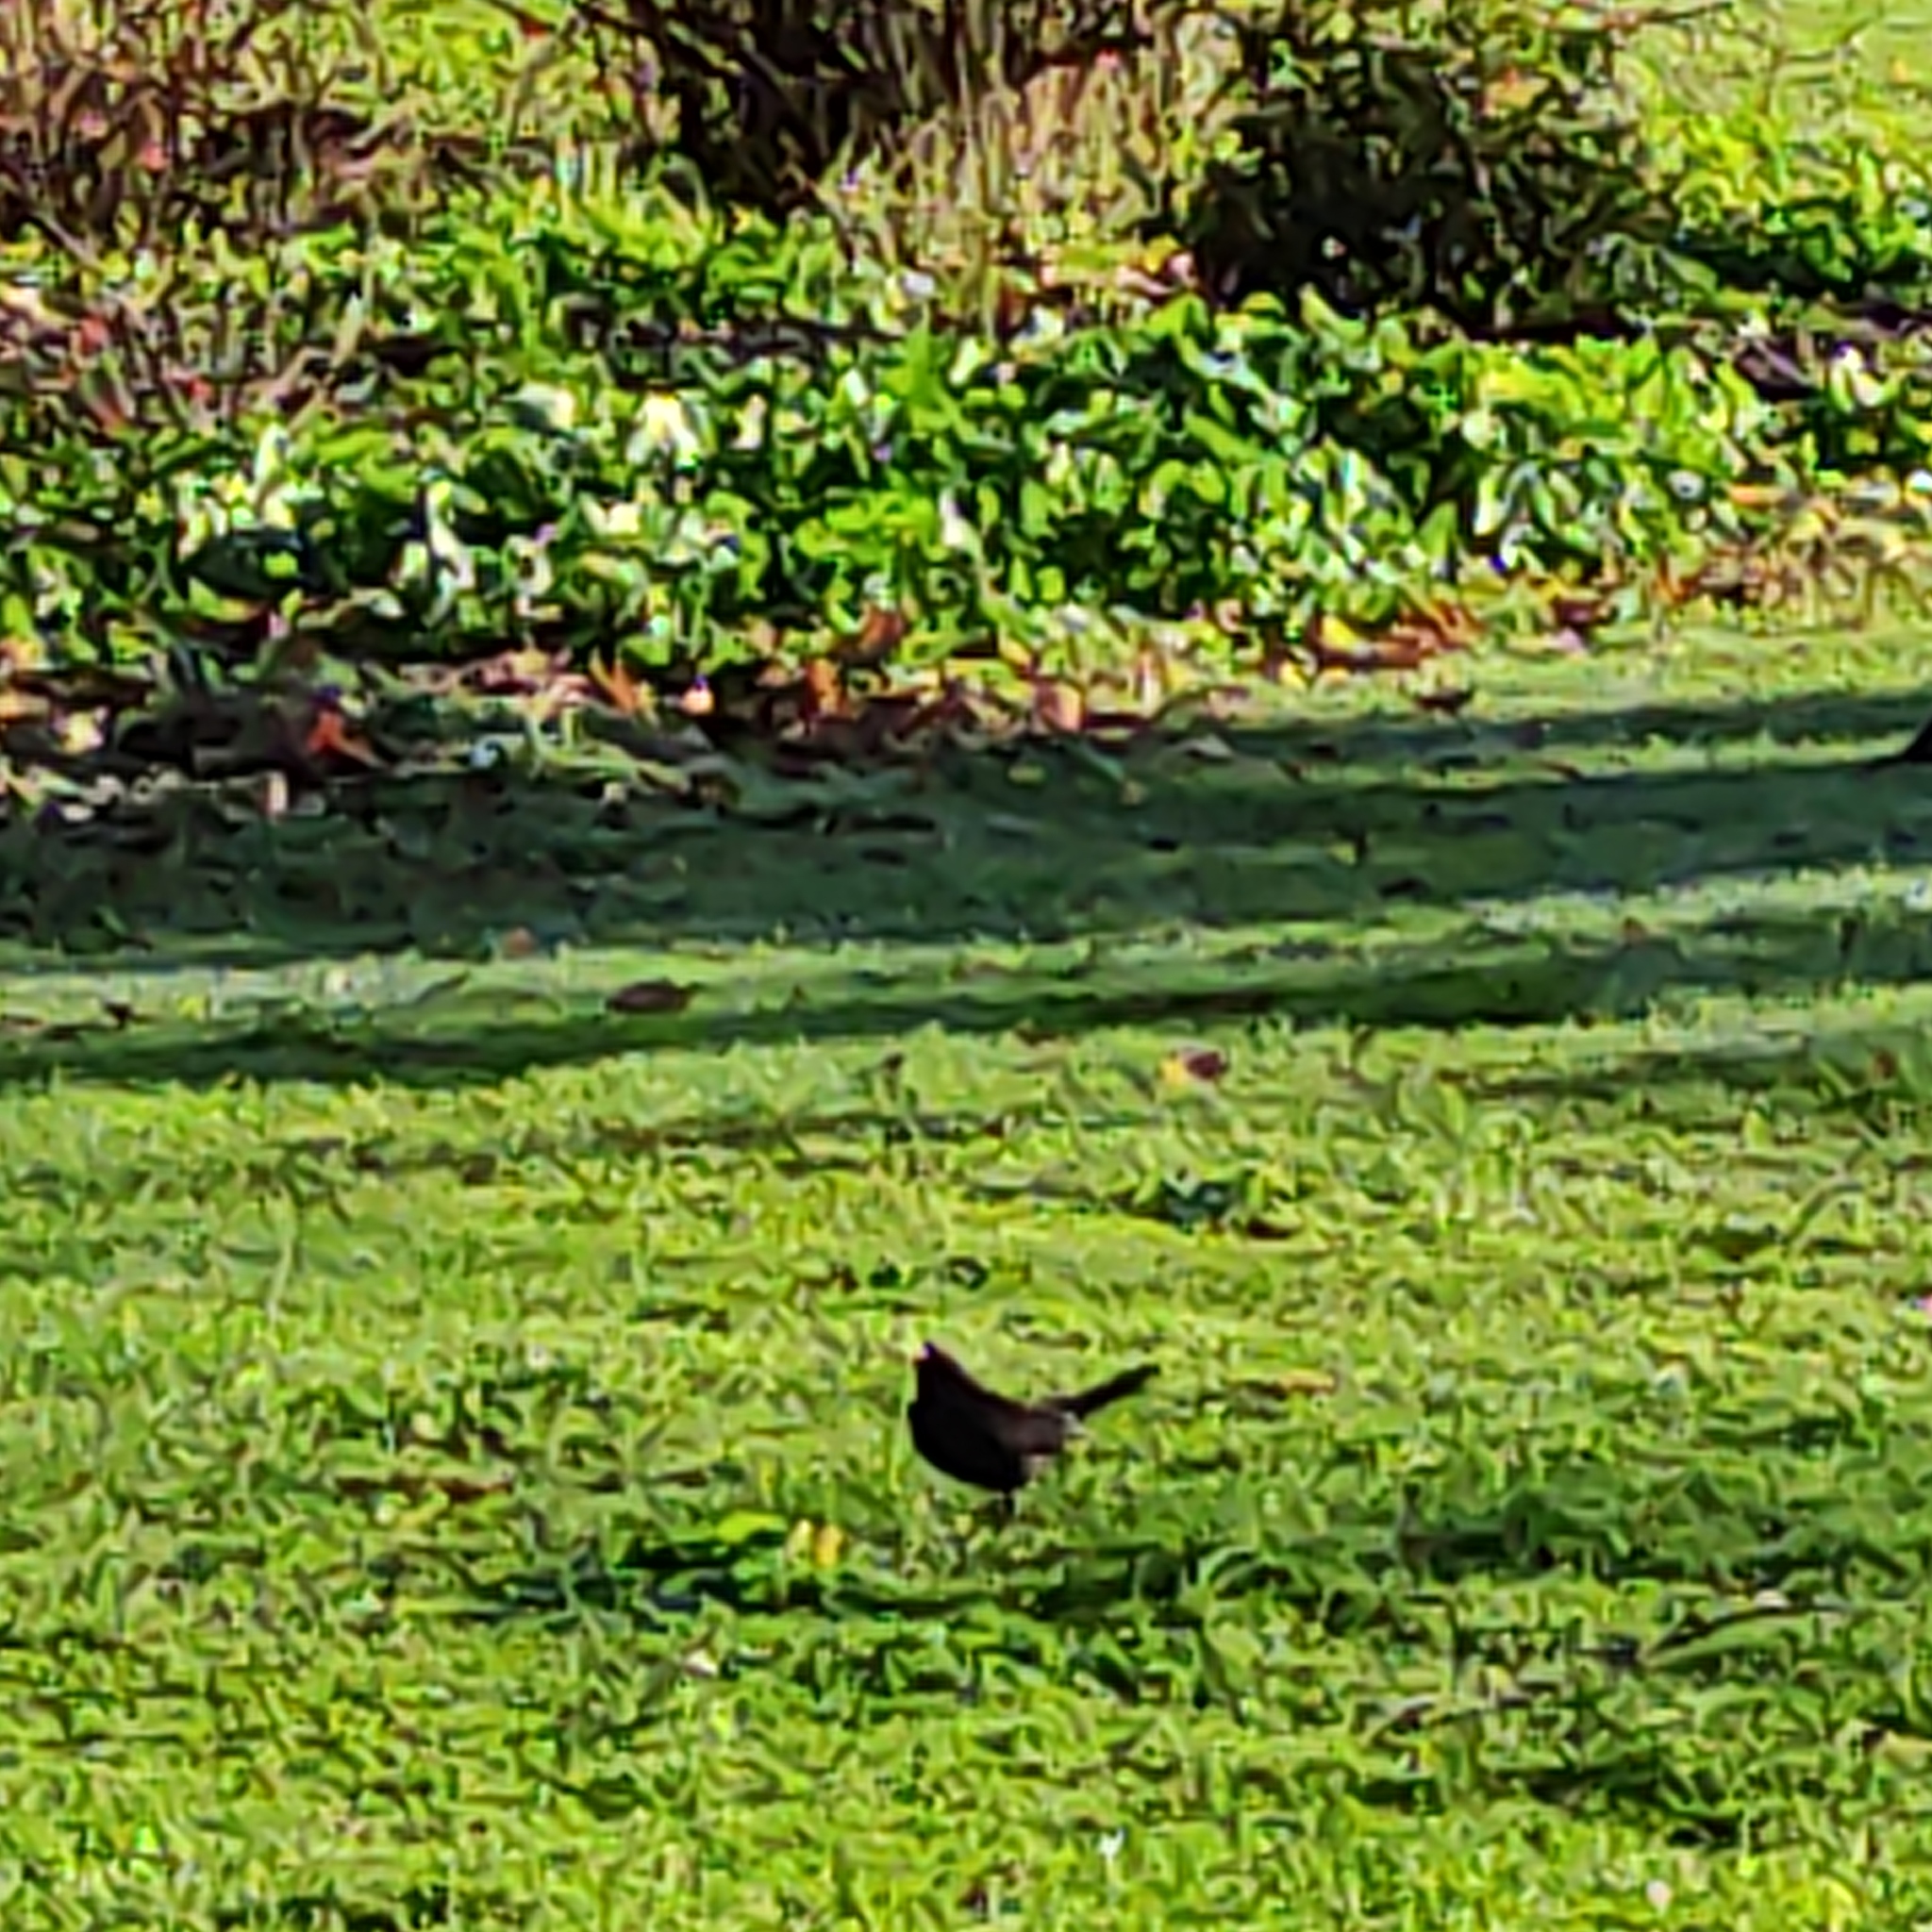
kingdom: Animalia
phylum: Chordata
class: Aves
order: Passeriformes
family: Turdidae
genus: Turdus
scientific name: Turdus merula
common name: Common blackbird
